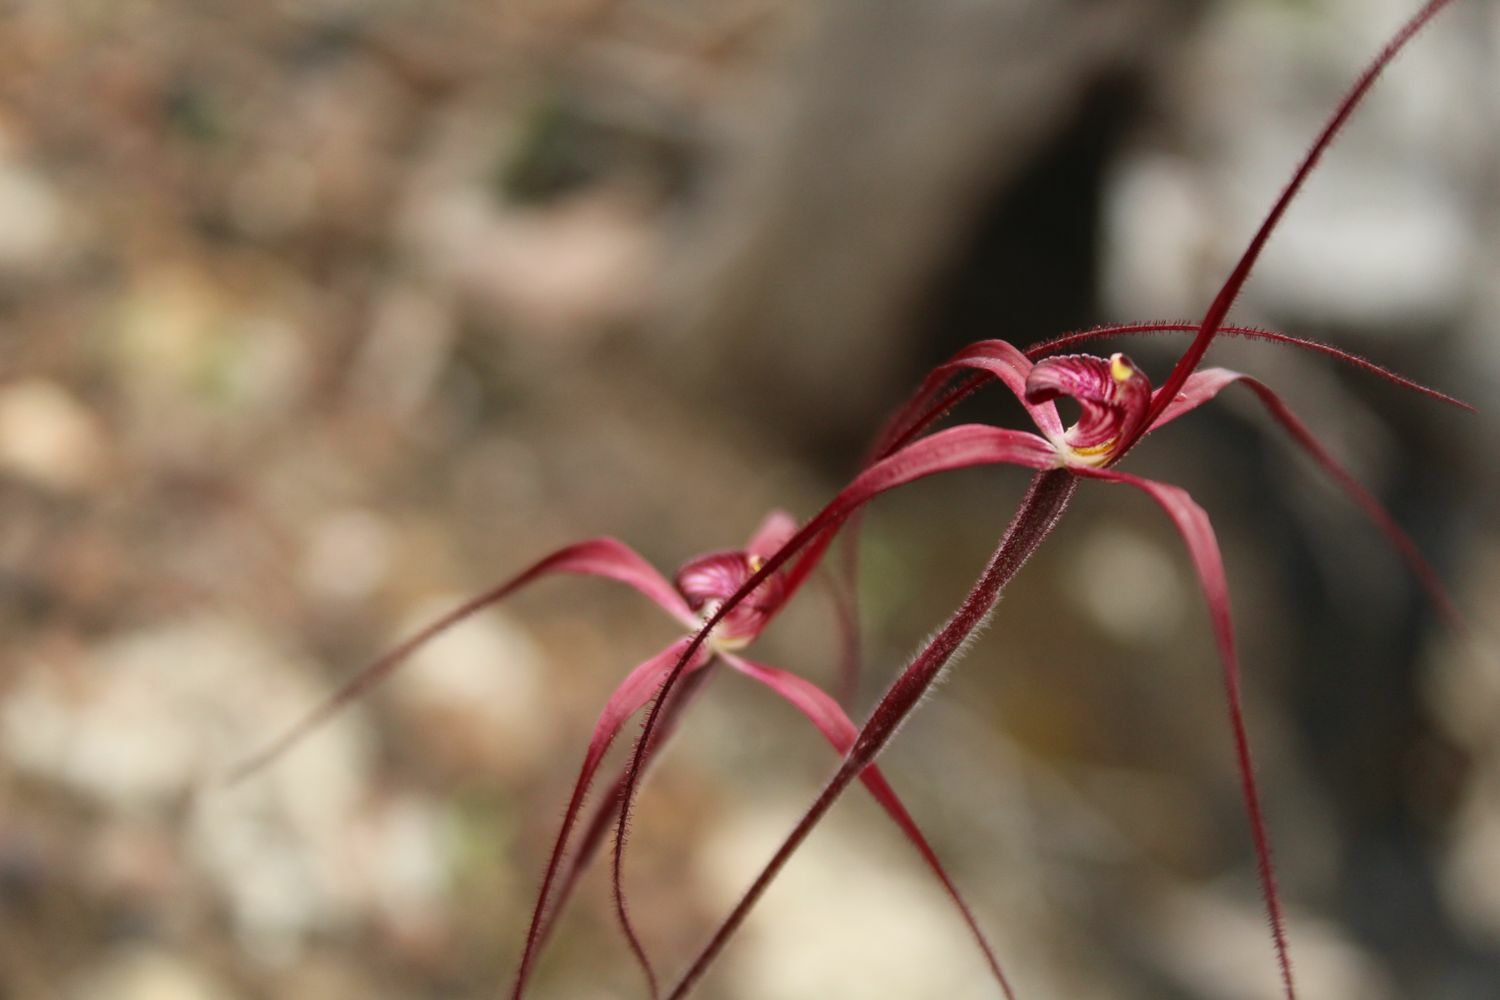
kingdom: Plantae
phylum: Tracheophyta
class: Liliopsida
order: Asparagales
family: Orchidaceae
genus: Caladenia
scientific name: Caladenia erythronema
